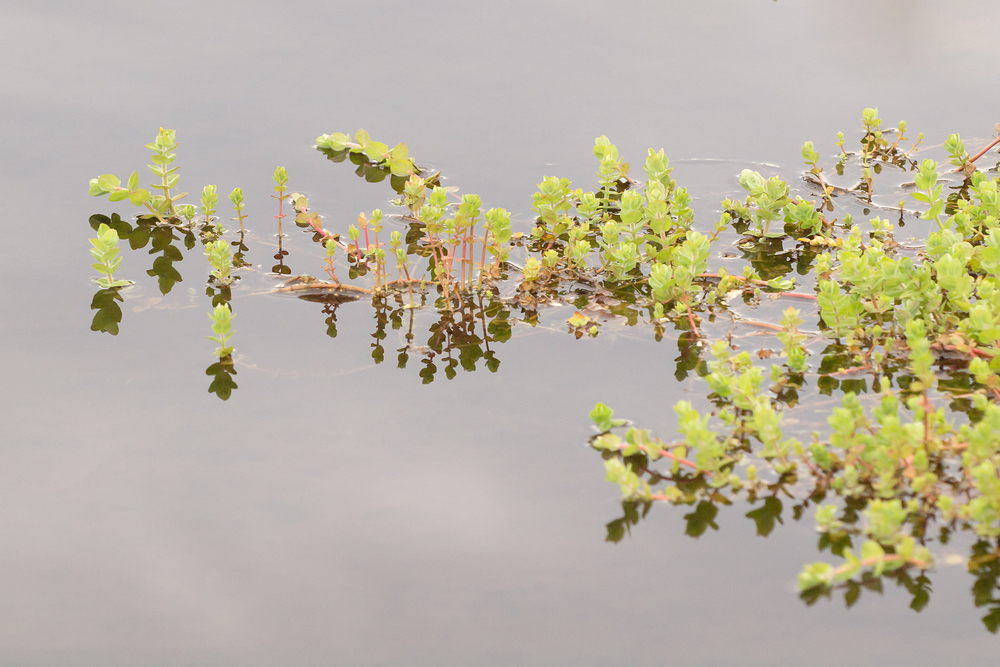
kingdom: Plantae
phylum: Tracheophyta
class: Magnoliopsida
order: Malpighiales
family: Hypericaceae
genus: Hypericum
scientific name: Hypericum elodes
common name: Marsh st. john's-wort
